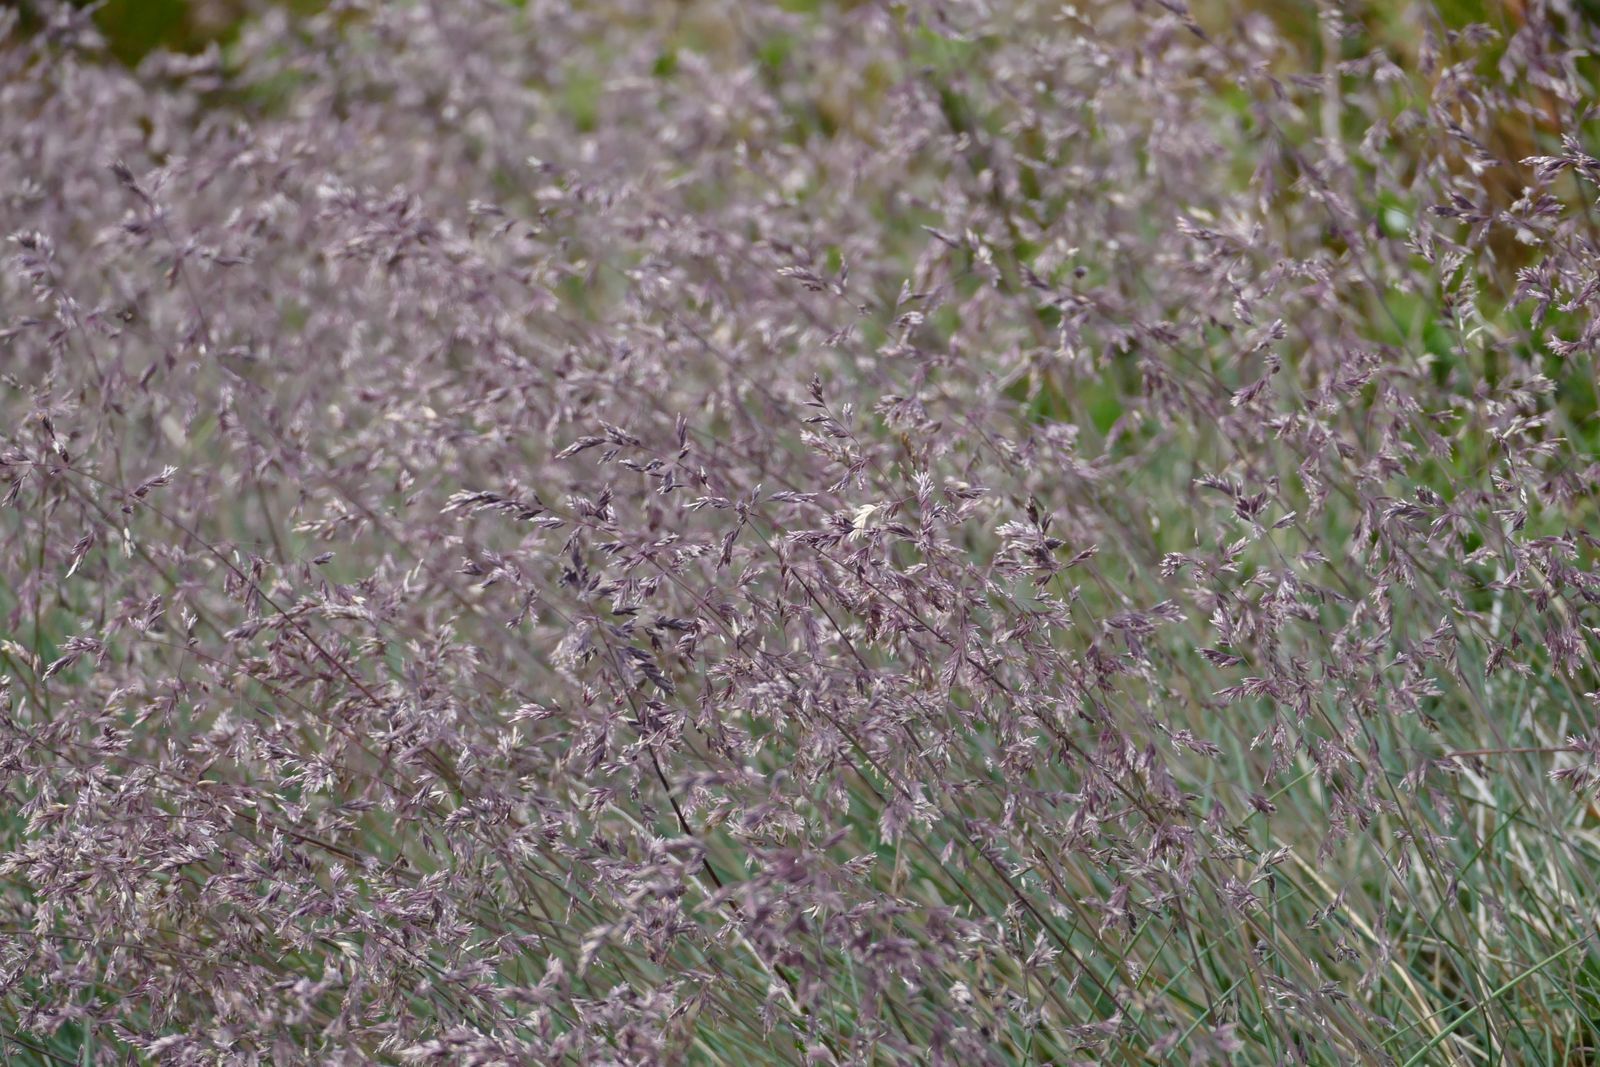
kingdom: Plantae
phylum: Tracheophyta
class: Liliopsida
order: Poales
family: Poaceae
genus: Poa
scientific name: Poa
